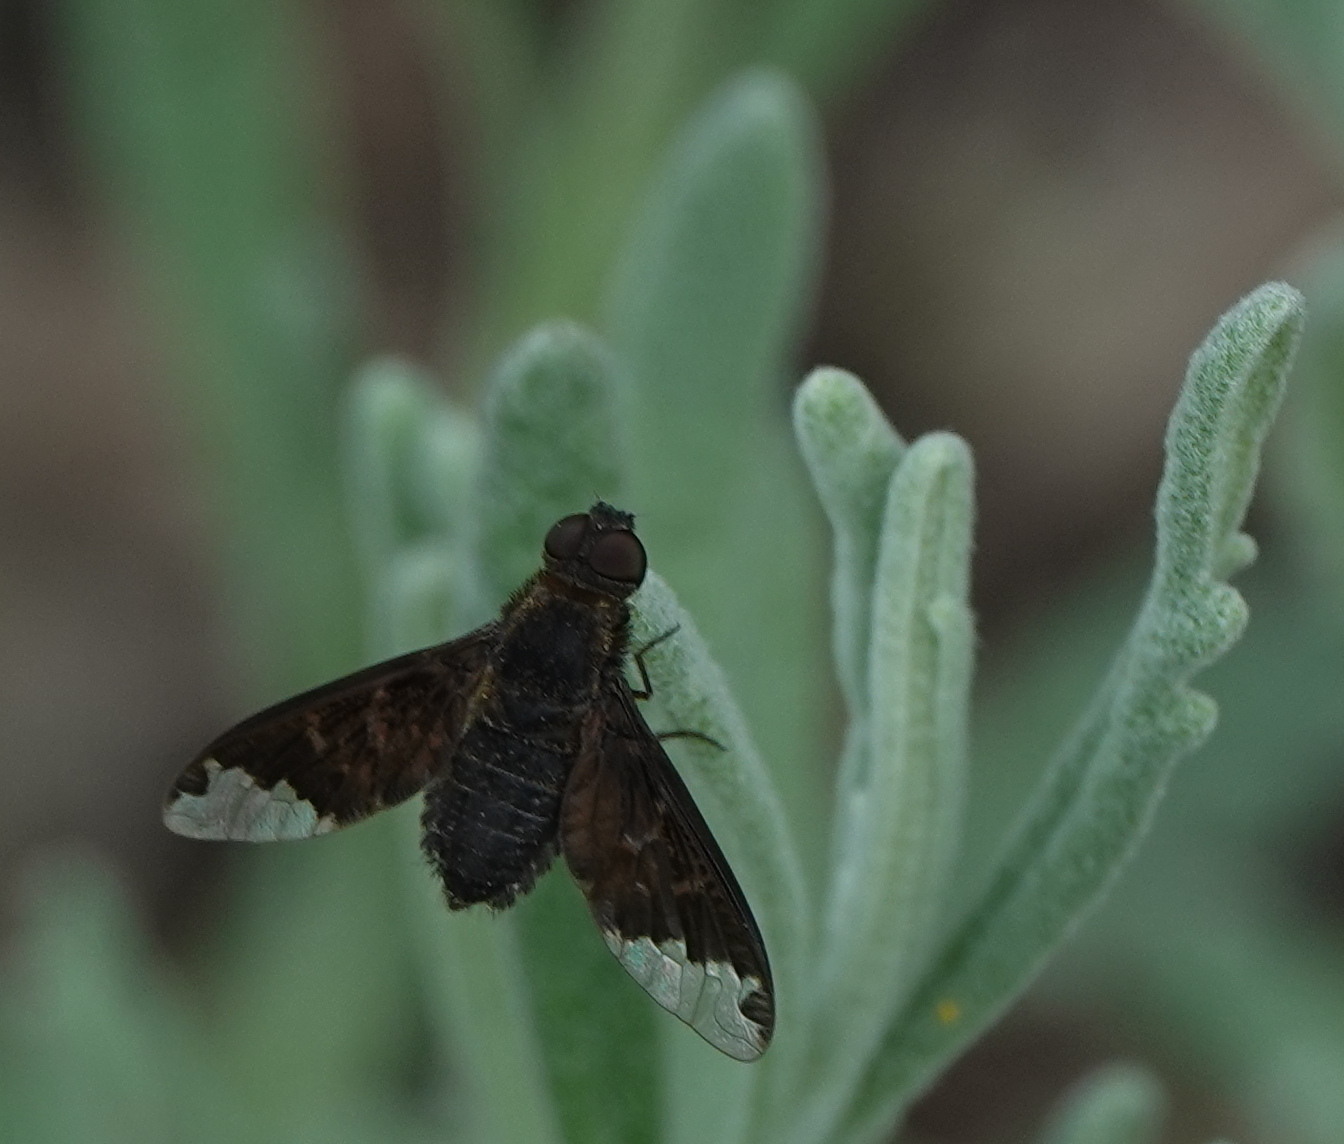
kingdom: Animalia
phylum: Arthropoda
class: Insecta
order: Diptera
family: Bombyliidae
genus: Hemipenthes
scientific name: Hemipenthes sinuosus
